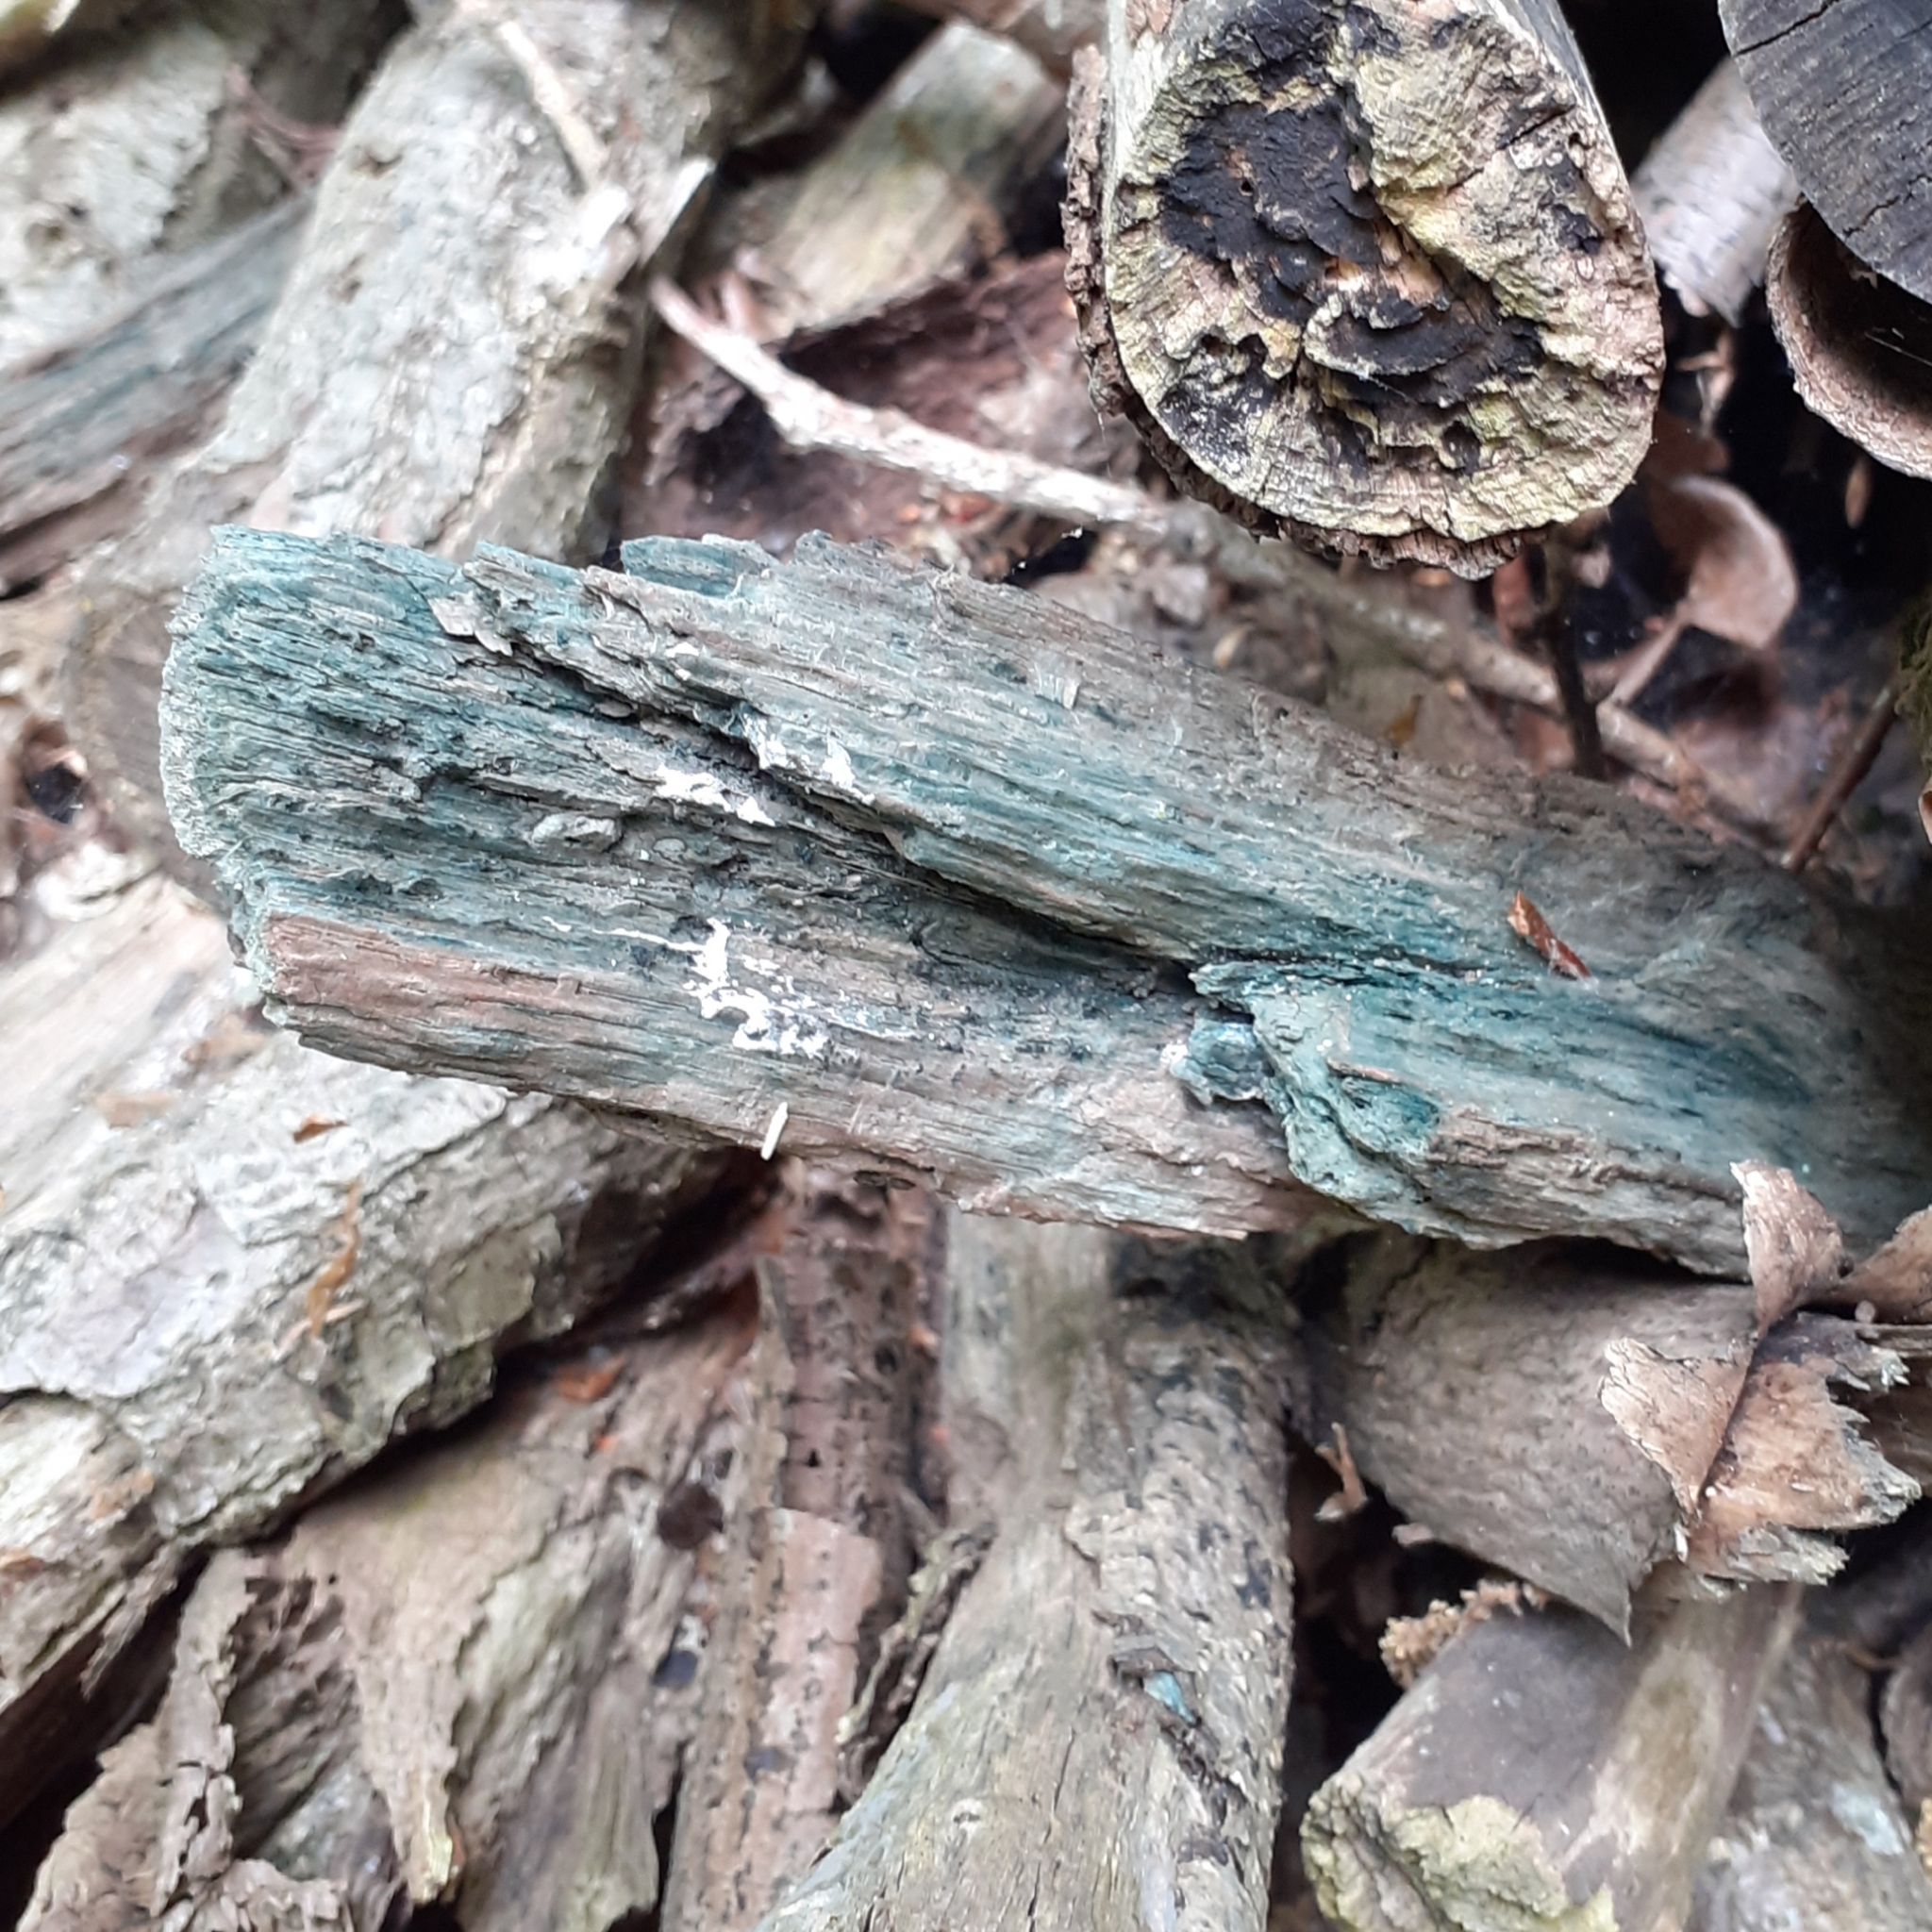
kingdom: Fungi
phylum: Ascomycota
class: Leotiomycetes
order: Helotiales
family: Chlorociboriaceae
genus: Chlorociboria
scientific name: Chlorociboria
